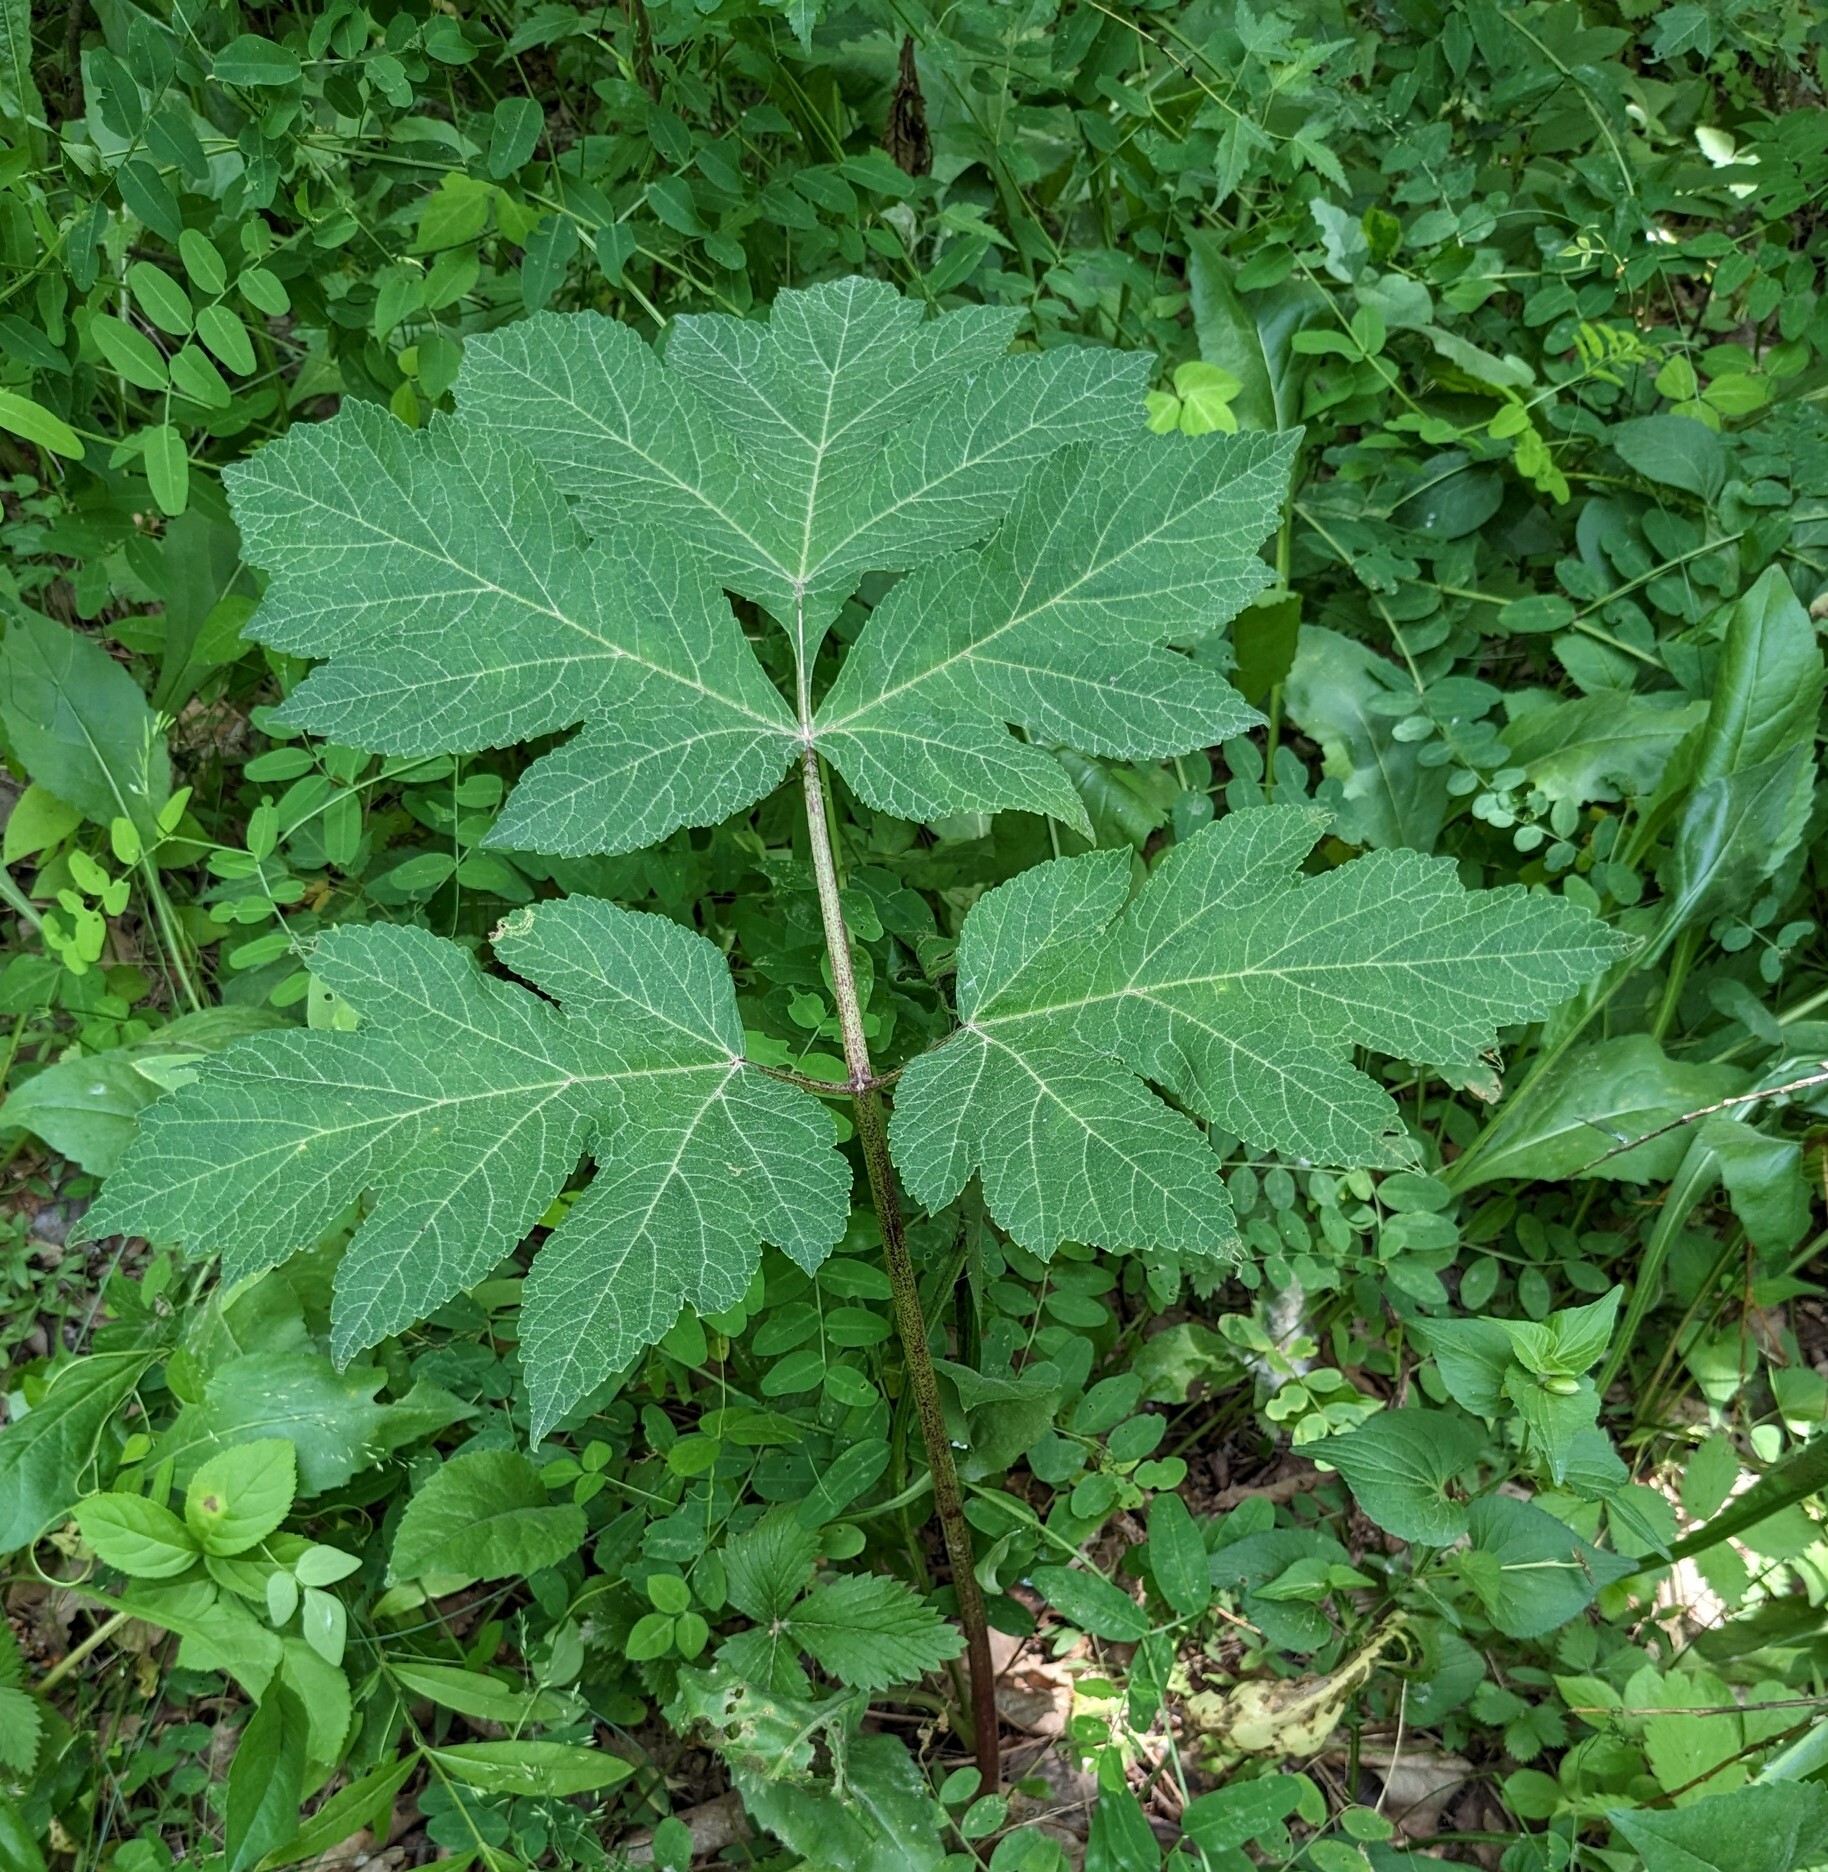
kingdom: Plantae
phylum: Tracheophyta
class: Magnoliopsida
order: Apiales
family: Apiaceae
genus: Heracleum
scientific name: Heracleum dissectum
